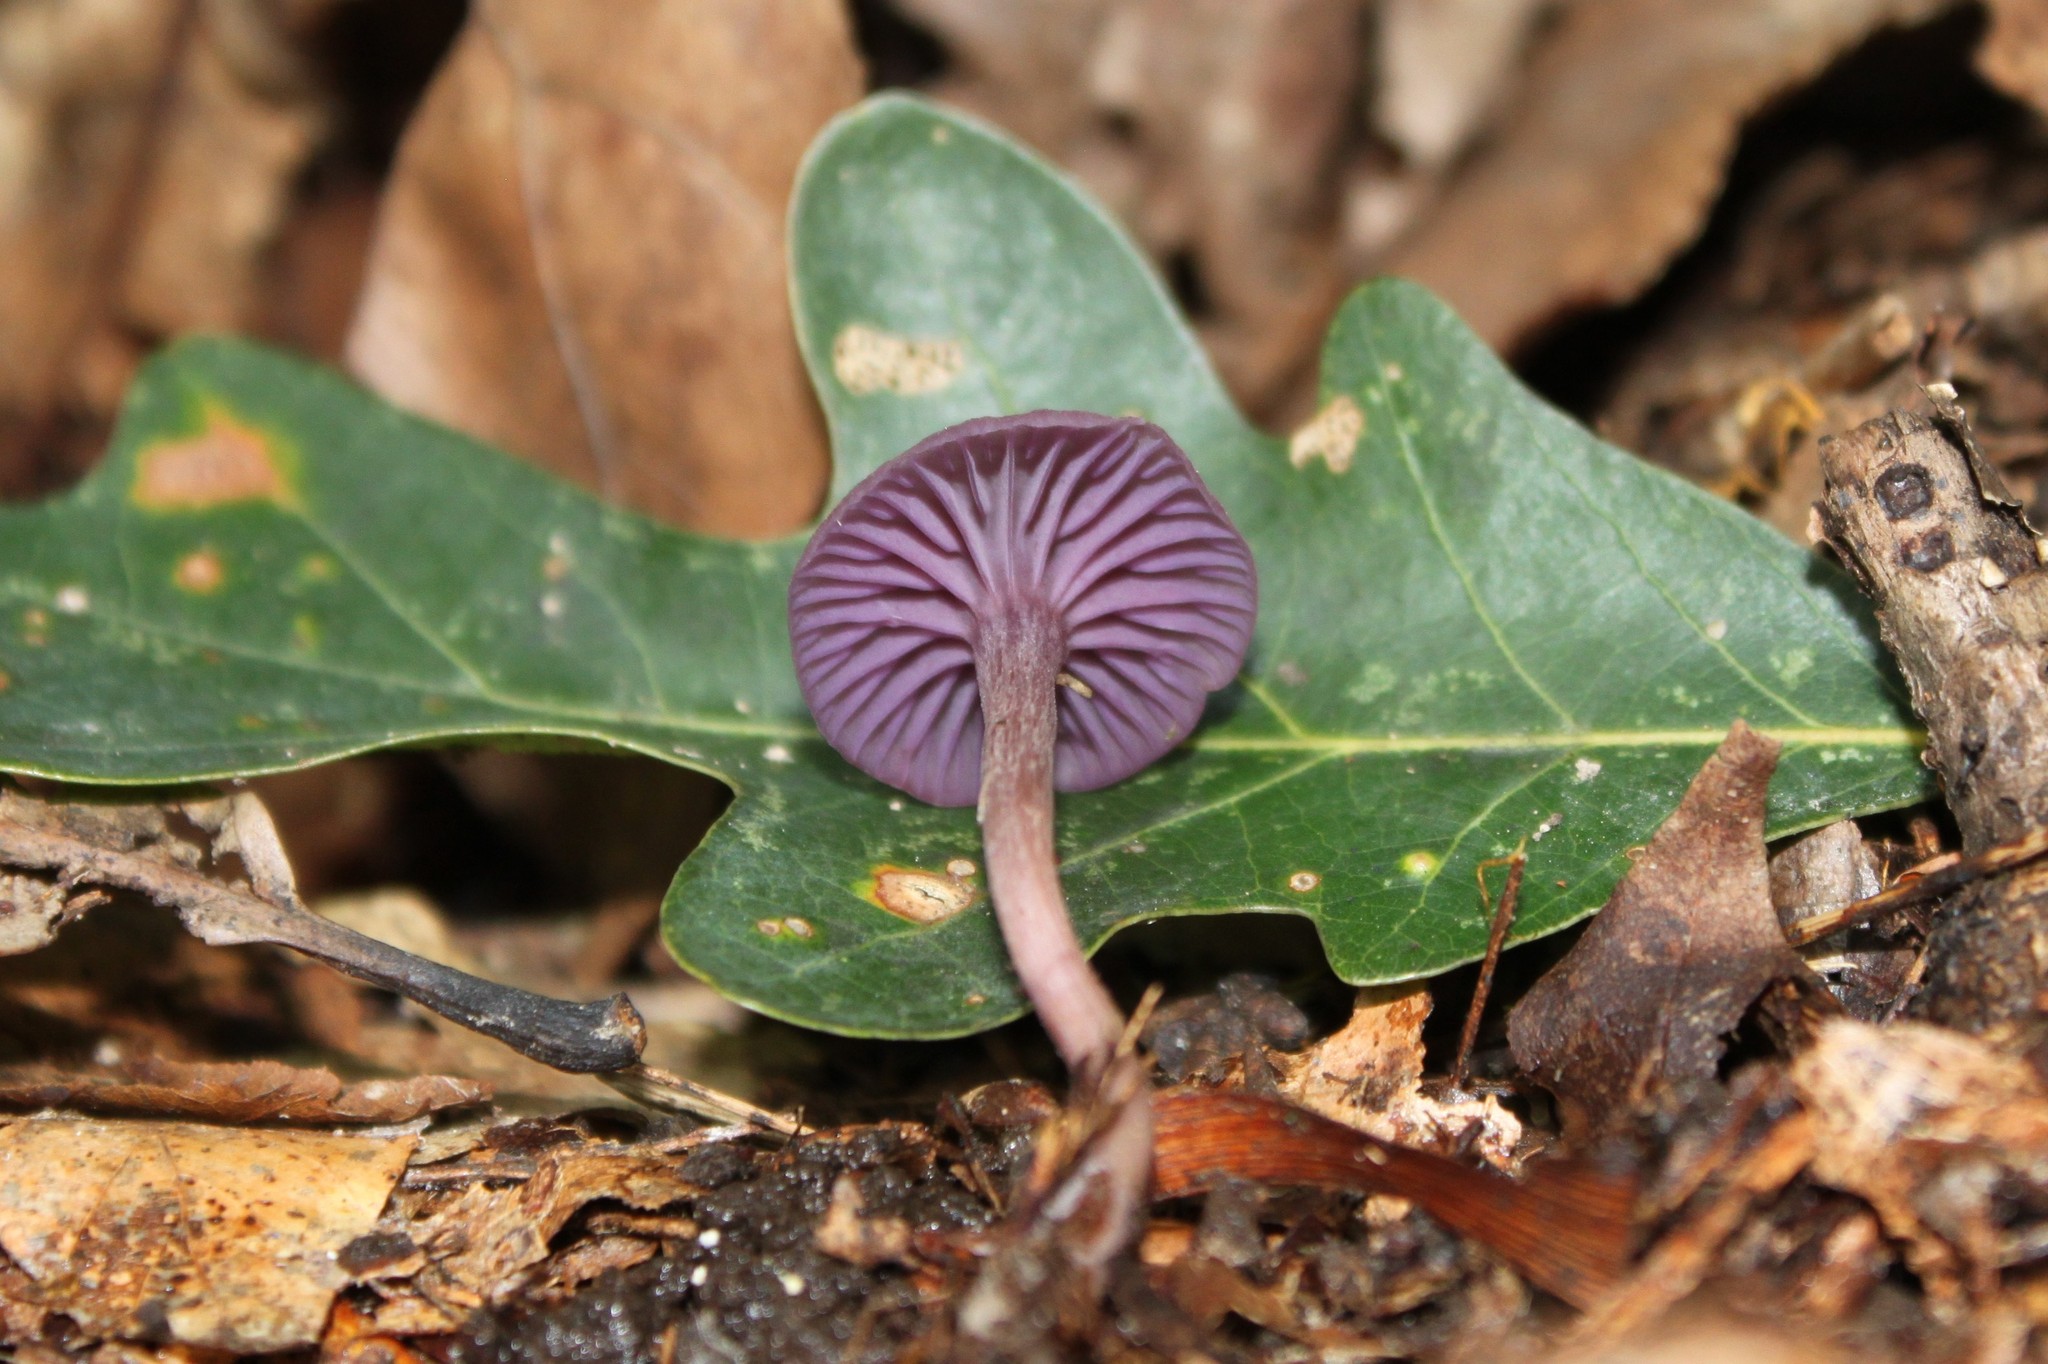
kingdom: Fungi
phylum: Basidiomycota
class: Agaricomycetes
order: Agaricales
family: Hydnangiaceae
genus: Laccaria
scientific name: Laccaria amethystina
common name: Amethyst deceiver
